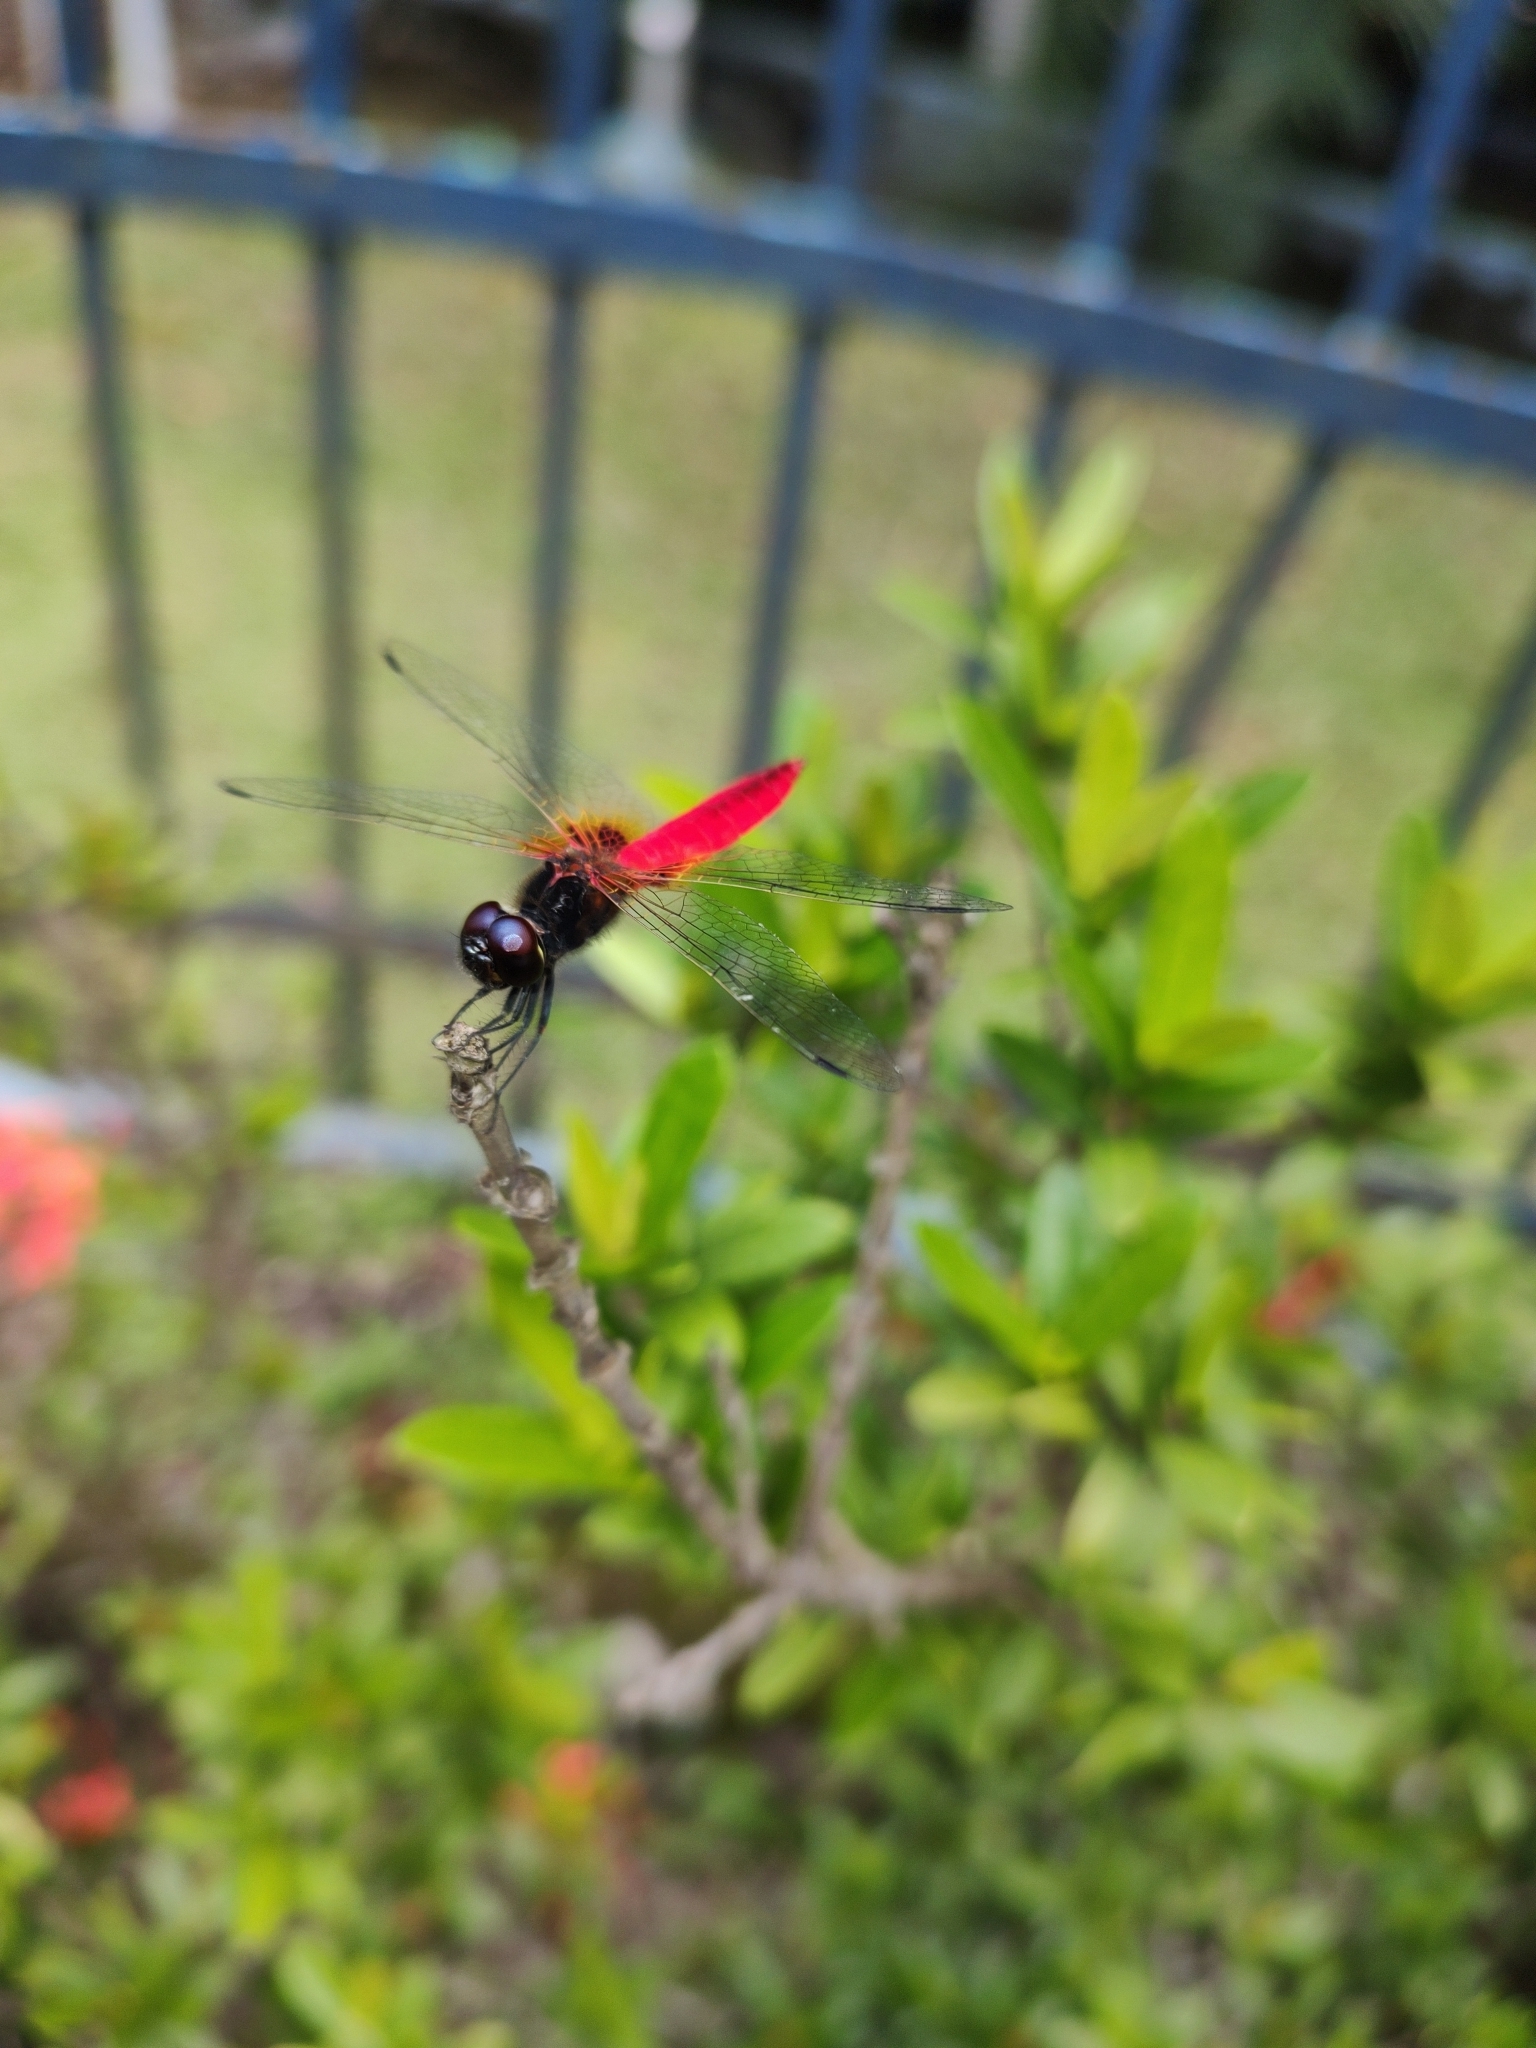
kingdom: Animalia
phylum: Arthropoda
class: Insecta
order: Odonata
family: Libellulidae
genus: Aethriamanta
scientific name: Aethriamanta brevipennis
